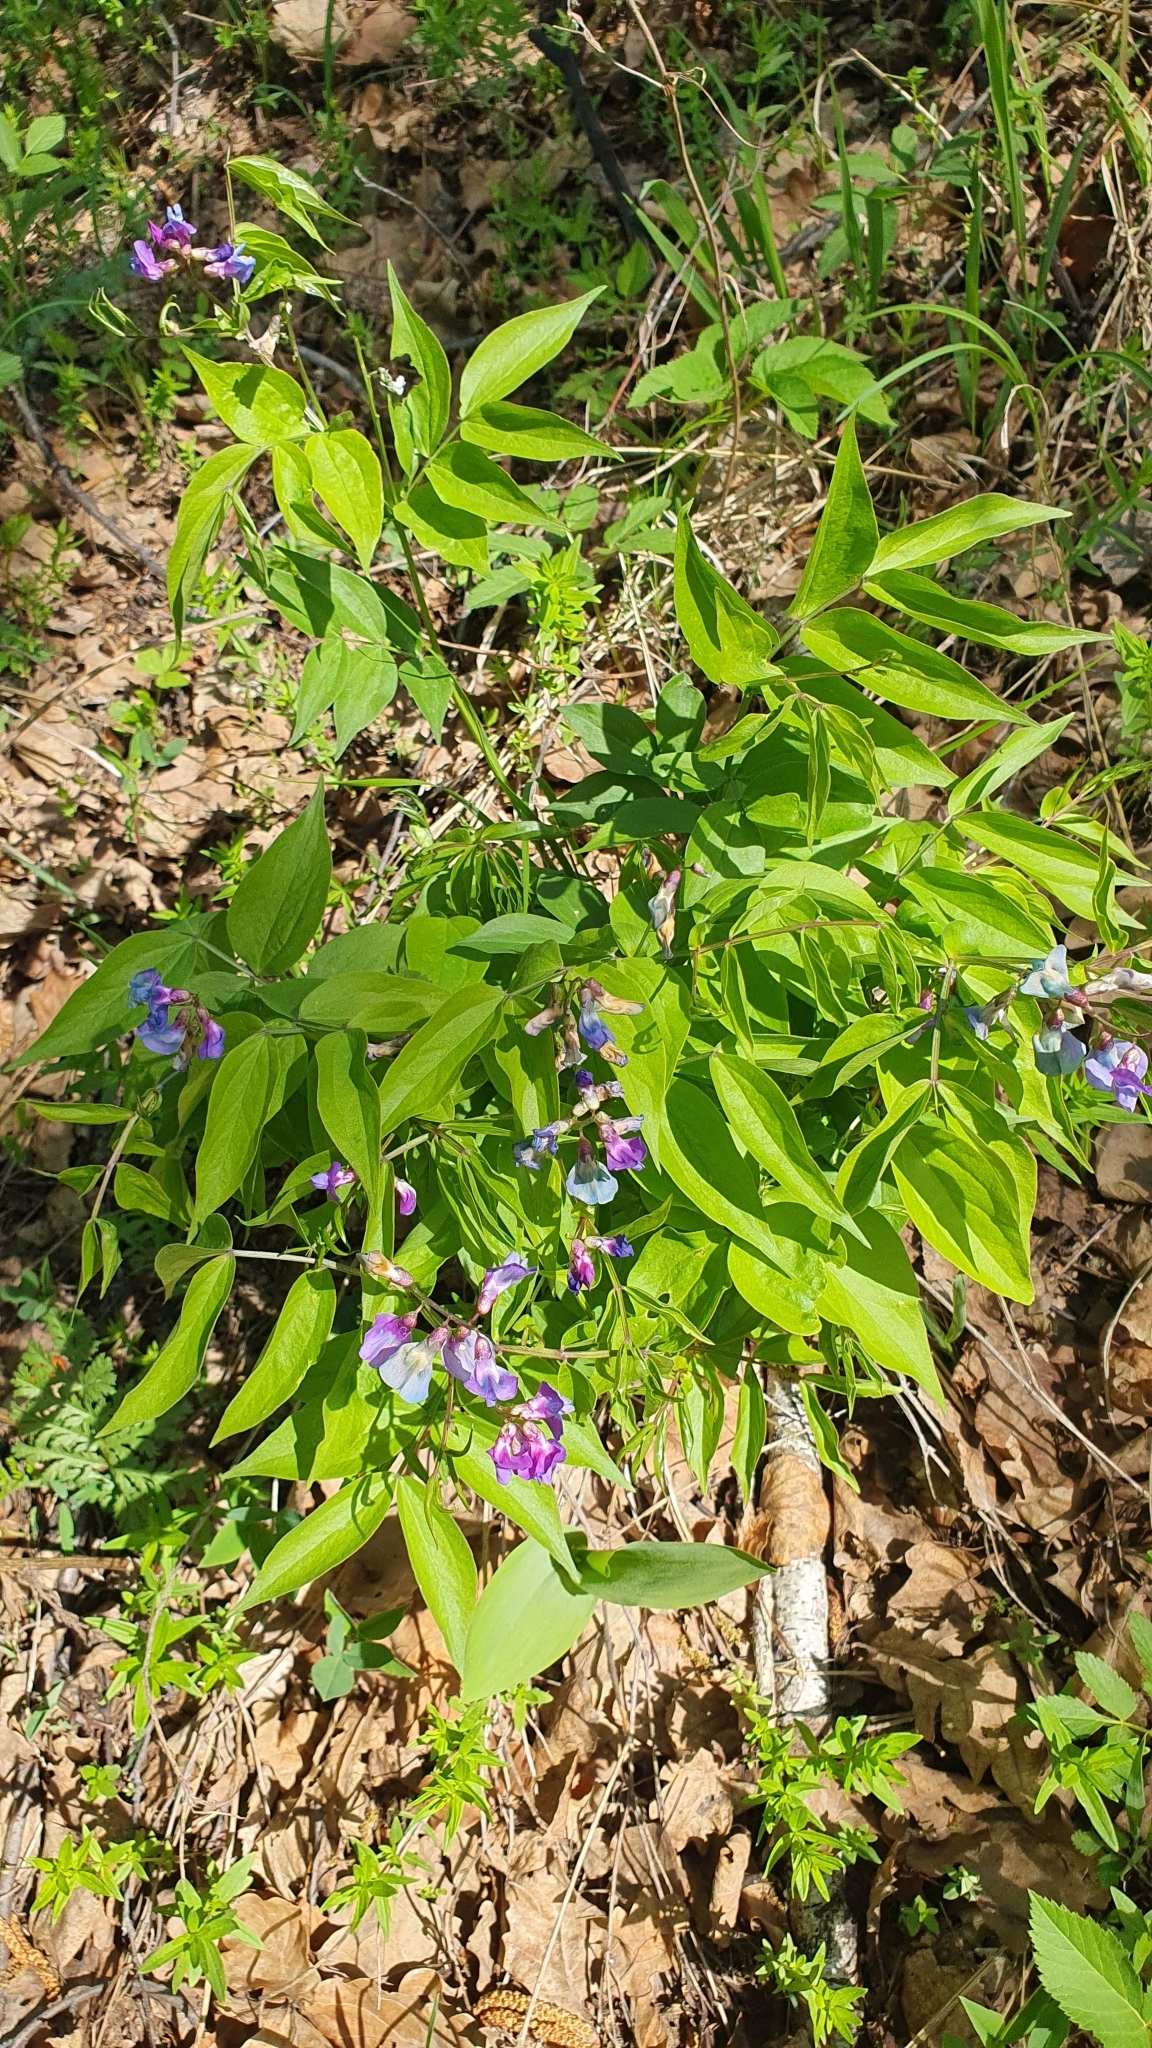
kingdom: Plantae
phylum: Tracheophyta
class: Magnoliopsida
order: Fabales
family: Fabaceae
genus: Lathyrus
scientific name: Lathyrus vernus
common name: Spring pea
